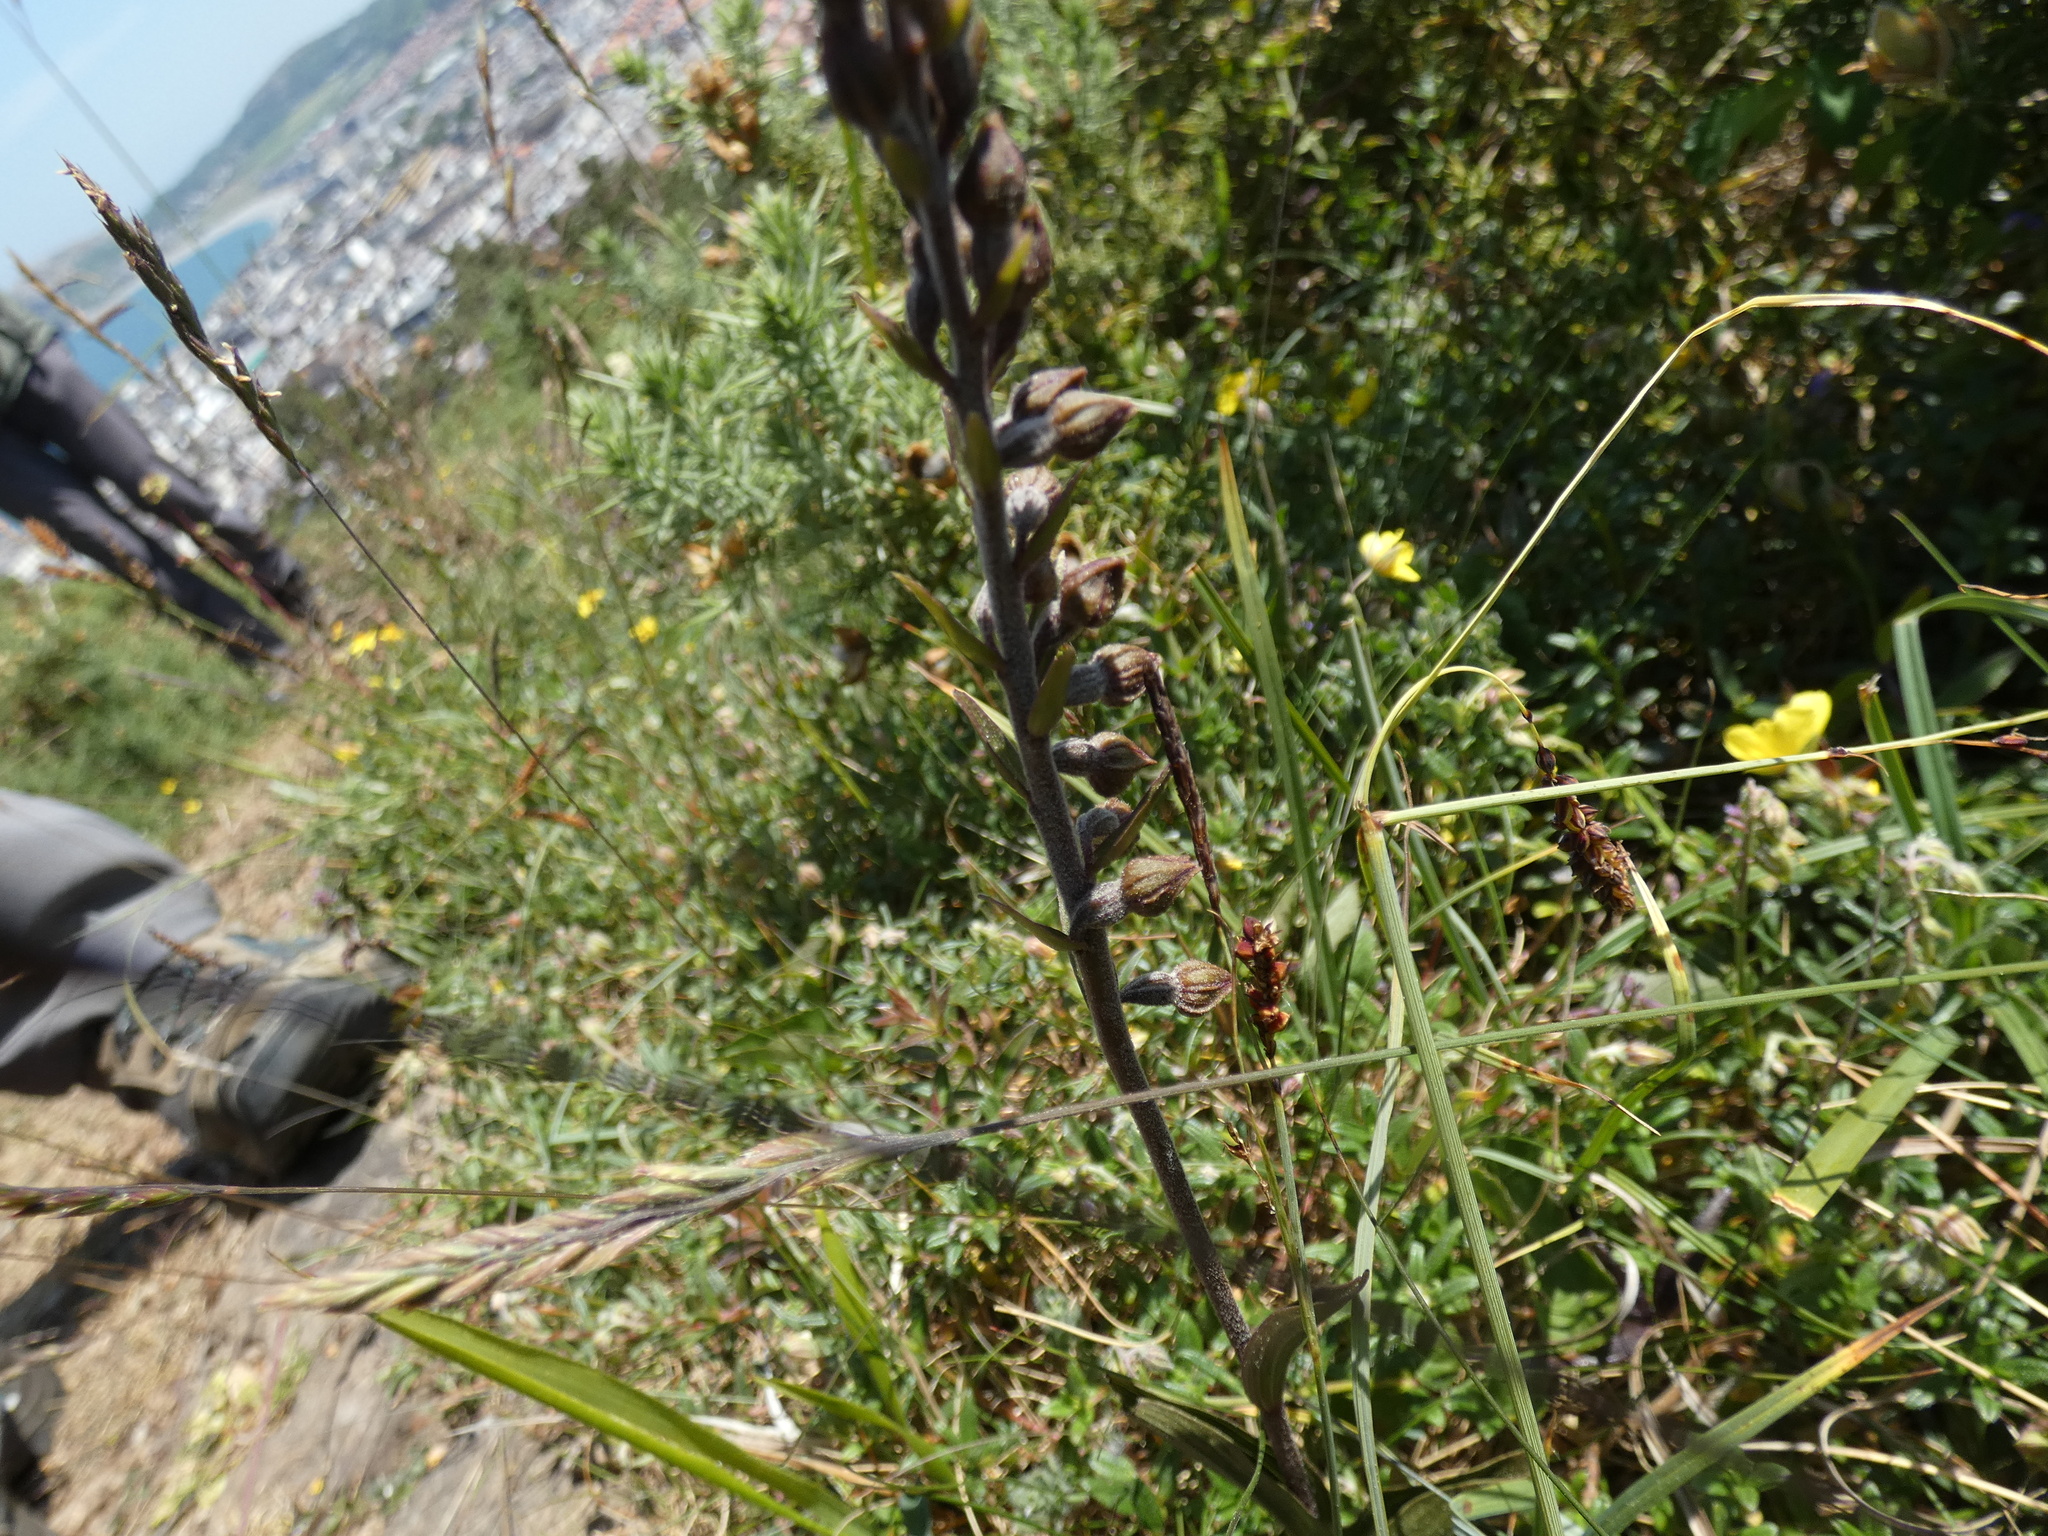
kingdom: Plantae
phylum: Tracheophyta
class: Liliopsida
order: Asparagales
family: Orchidaceae
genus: Epipactis
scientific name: Epipactis atrorubens
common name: Dark-red helleborine
